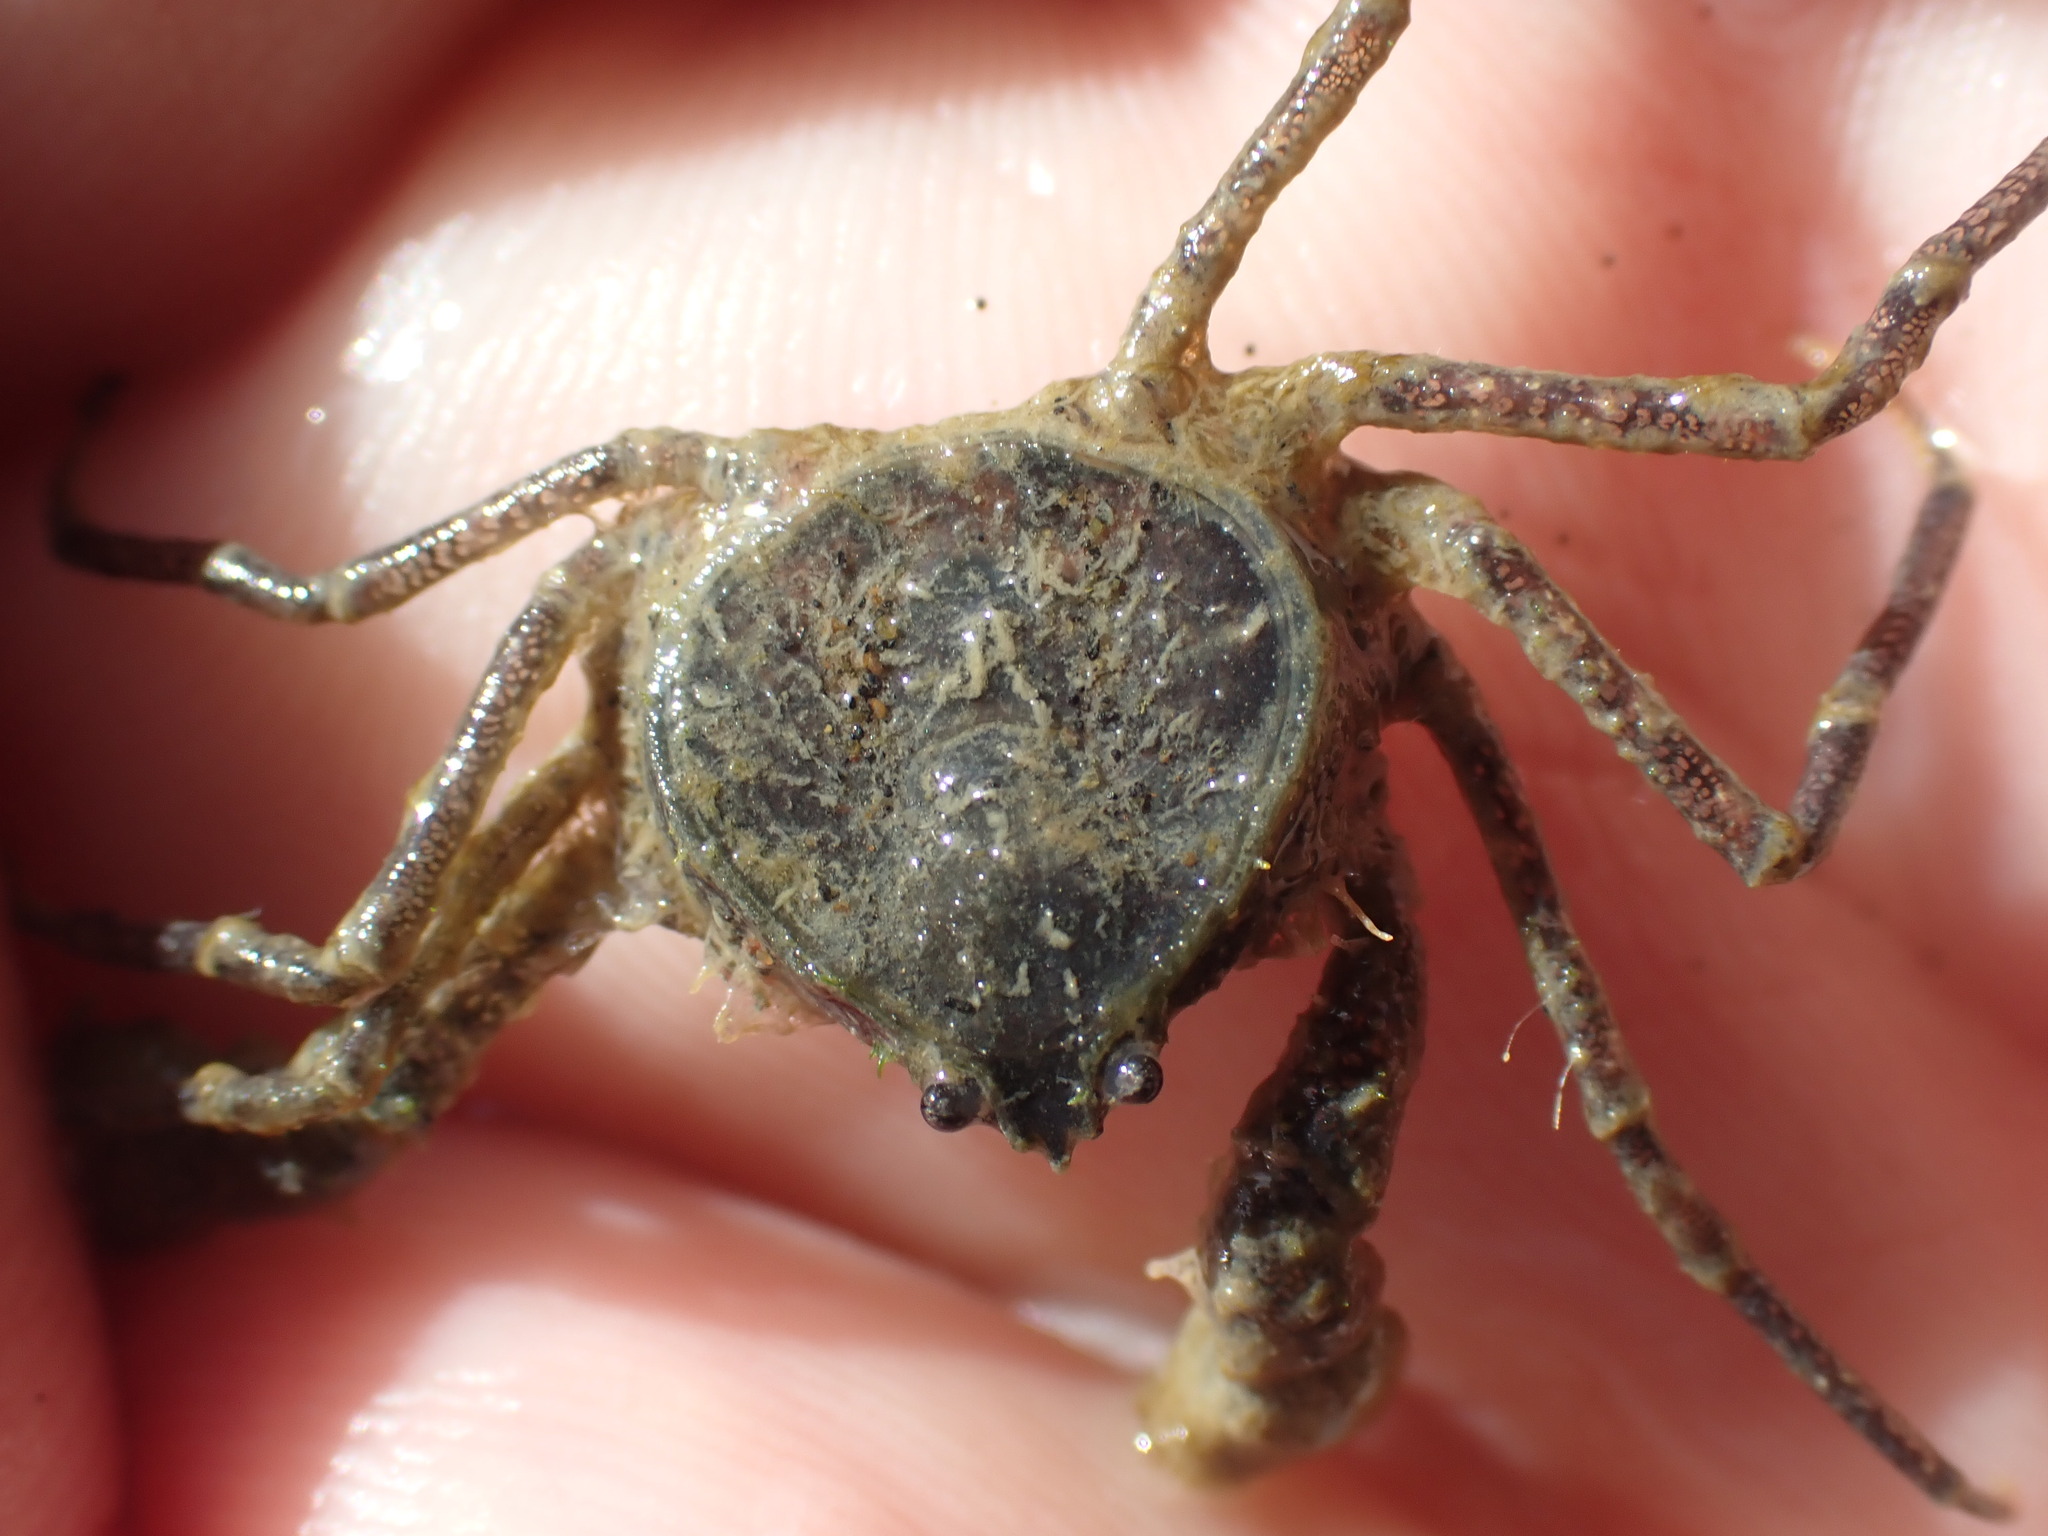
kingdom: Animalia
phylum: Arthropoda
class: Malacostraca
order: Decapoda
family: Hymenosomatidae
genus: Halicarcinus
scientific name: Halicarcinus whitei
